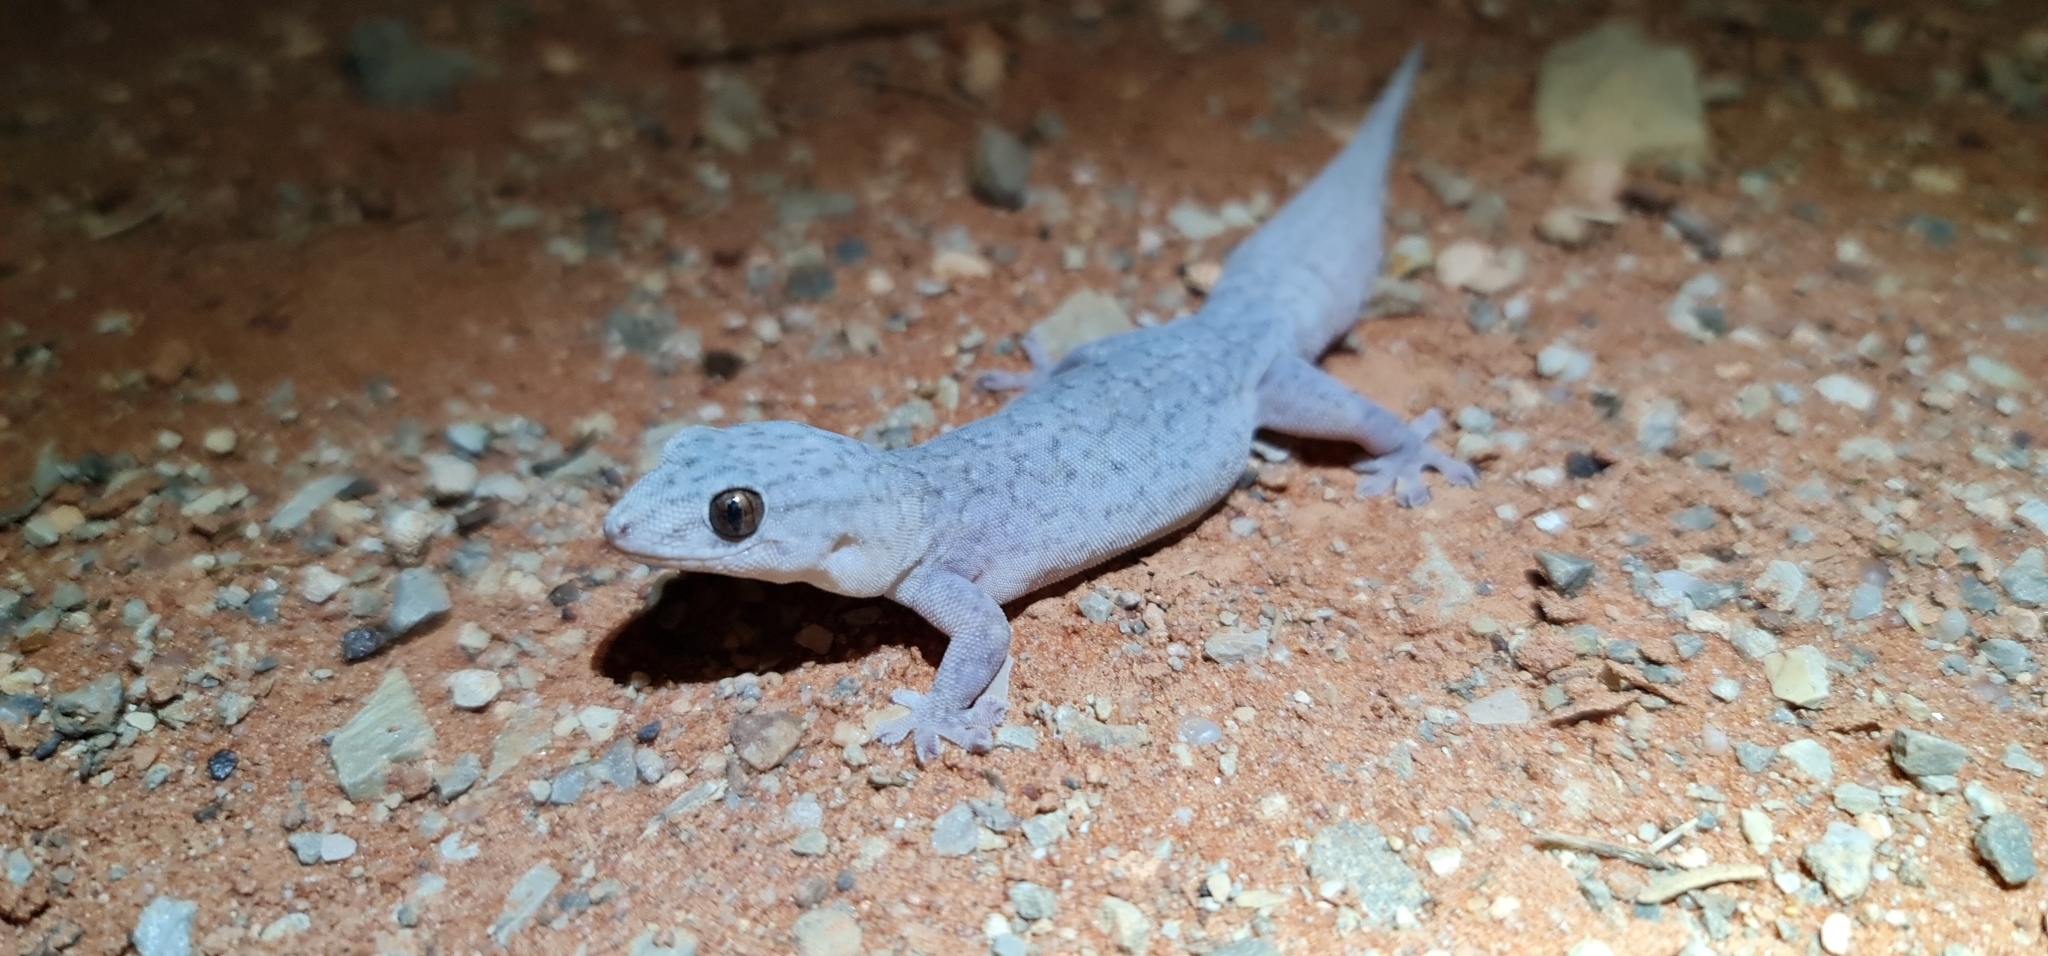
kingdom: Animalia
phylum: Chordata
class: Squamata
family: Gekkonidae
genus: Gehyra
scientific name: Gehyra purpurascens
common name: Purplish dtella
